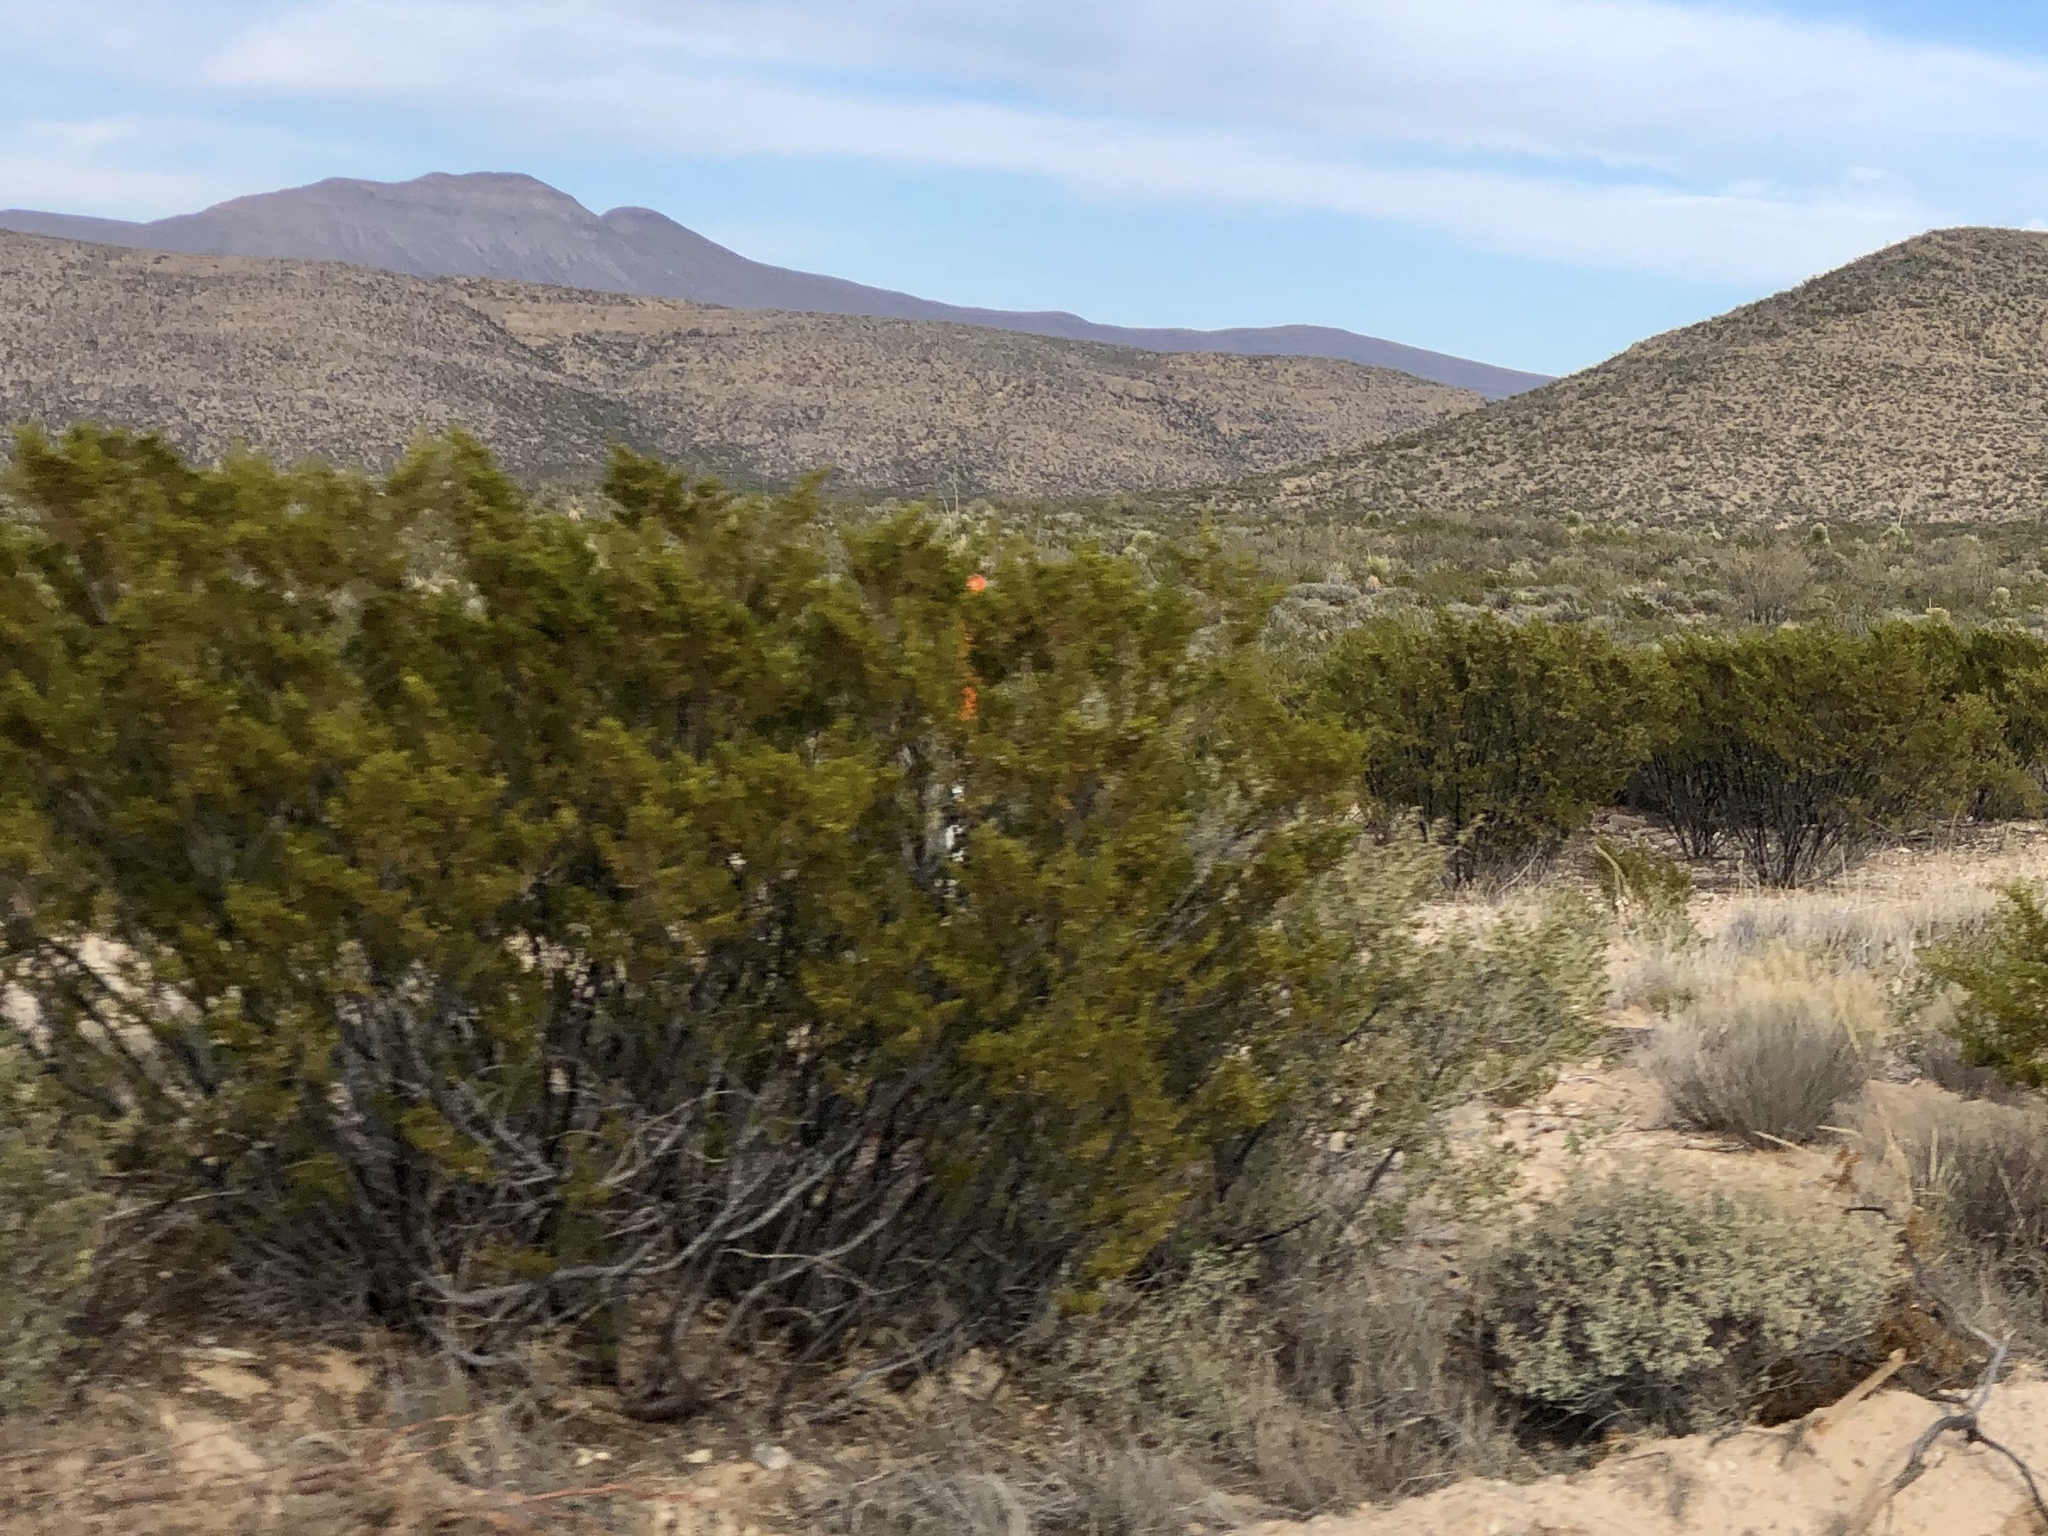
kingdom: Plantae
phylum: Tracheophyta
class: Magnoliopsida
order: Zygophyllales
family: Zygophyllaceae
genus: Larrea
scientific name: Larrea tridentata
